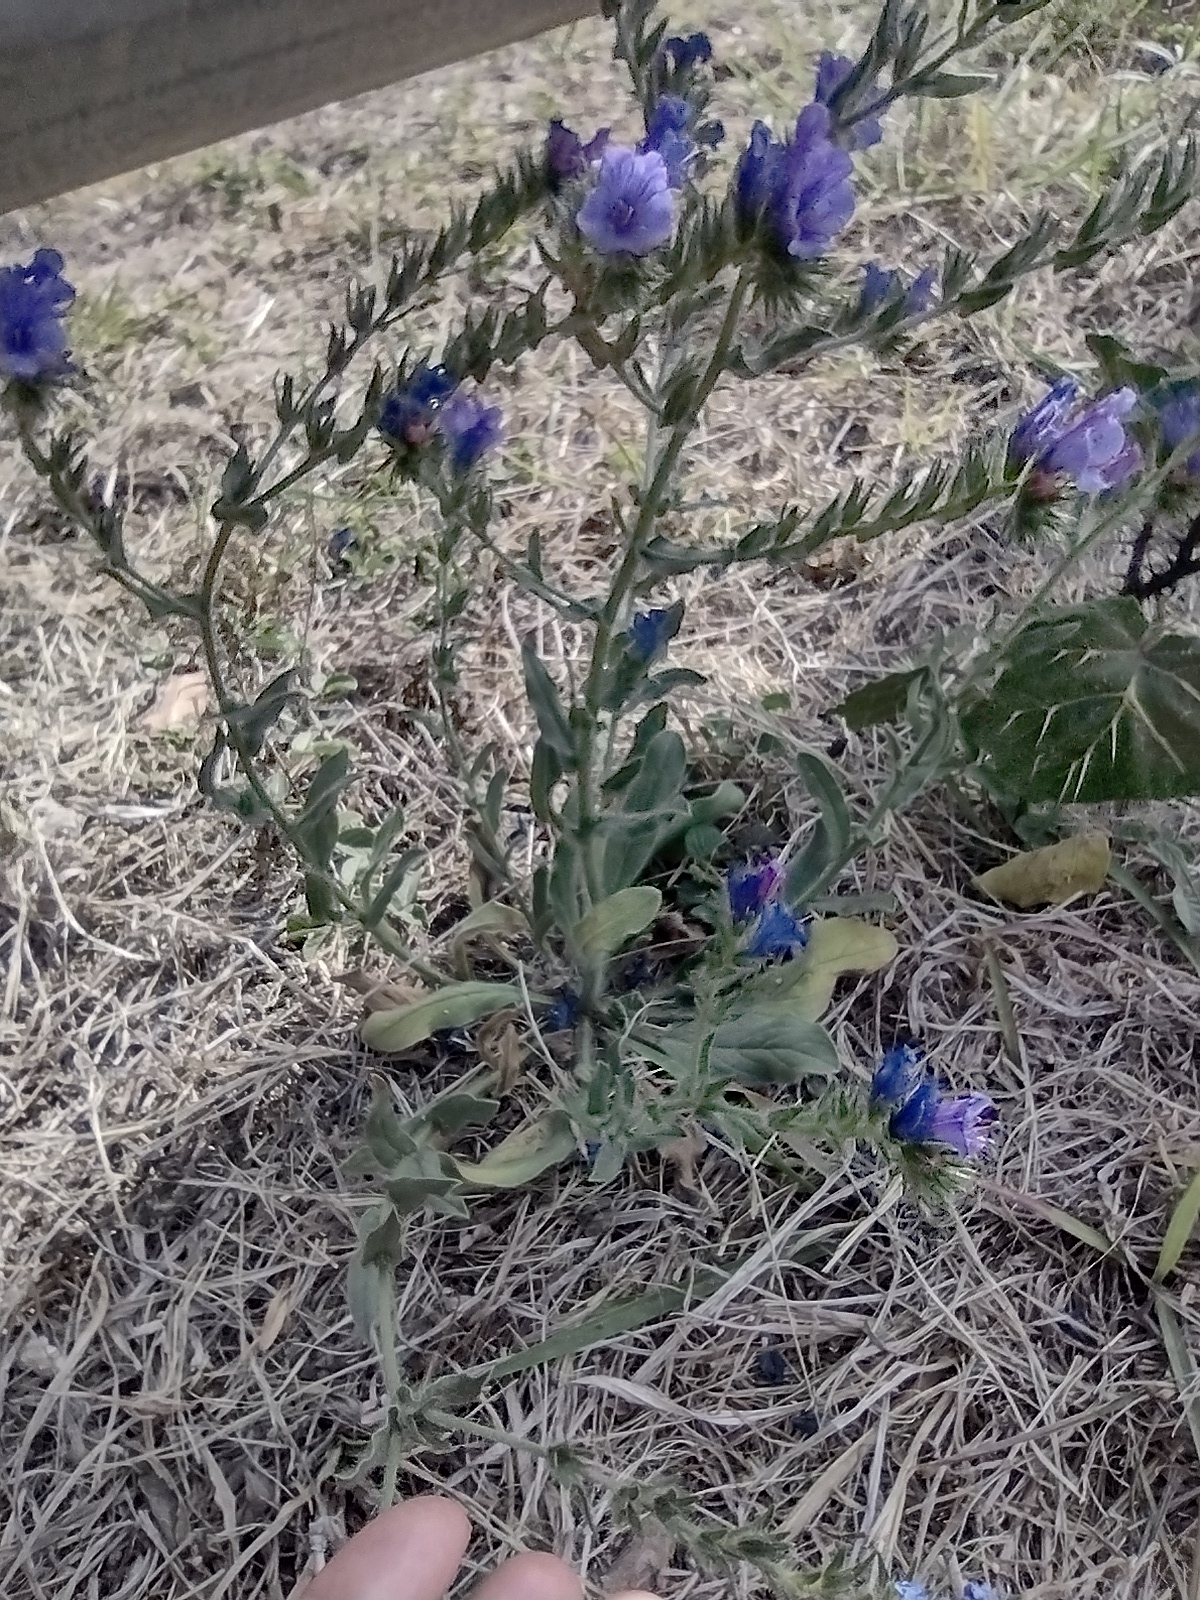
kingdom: Plantae
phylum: Tracheophyta
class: Magnoliopsida
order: Boraginales
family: Boraginaceae
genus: Echium
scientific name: Echium plantagineum
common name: Purple viper's-bugloss
